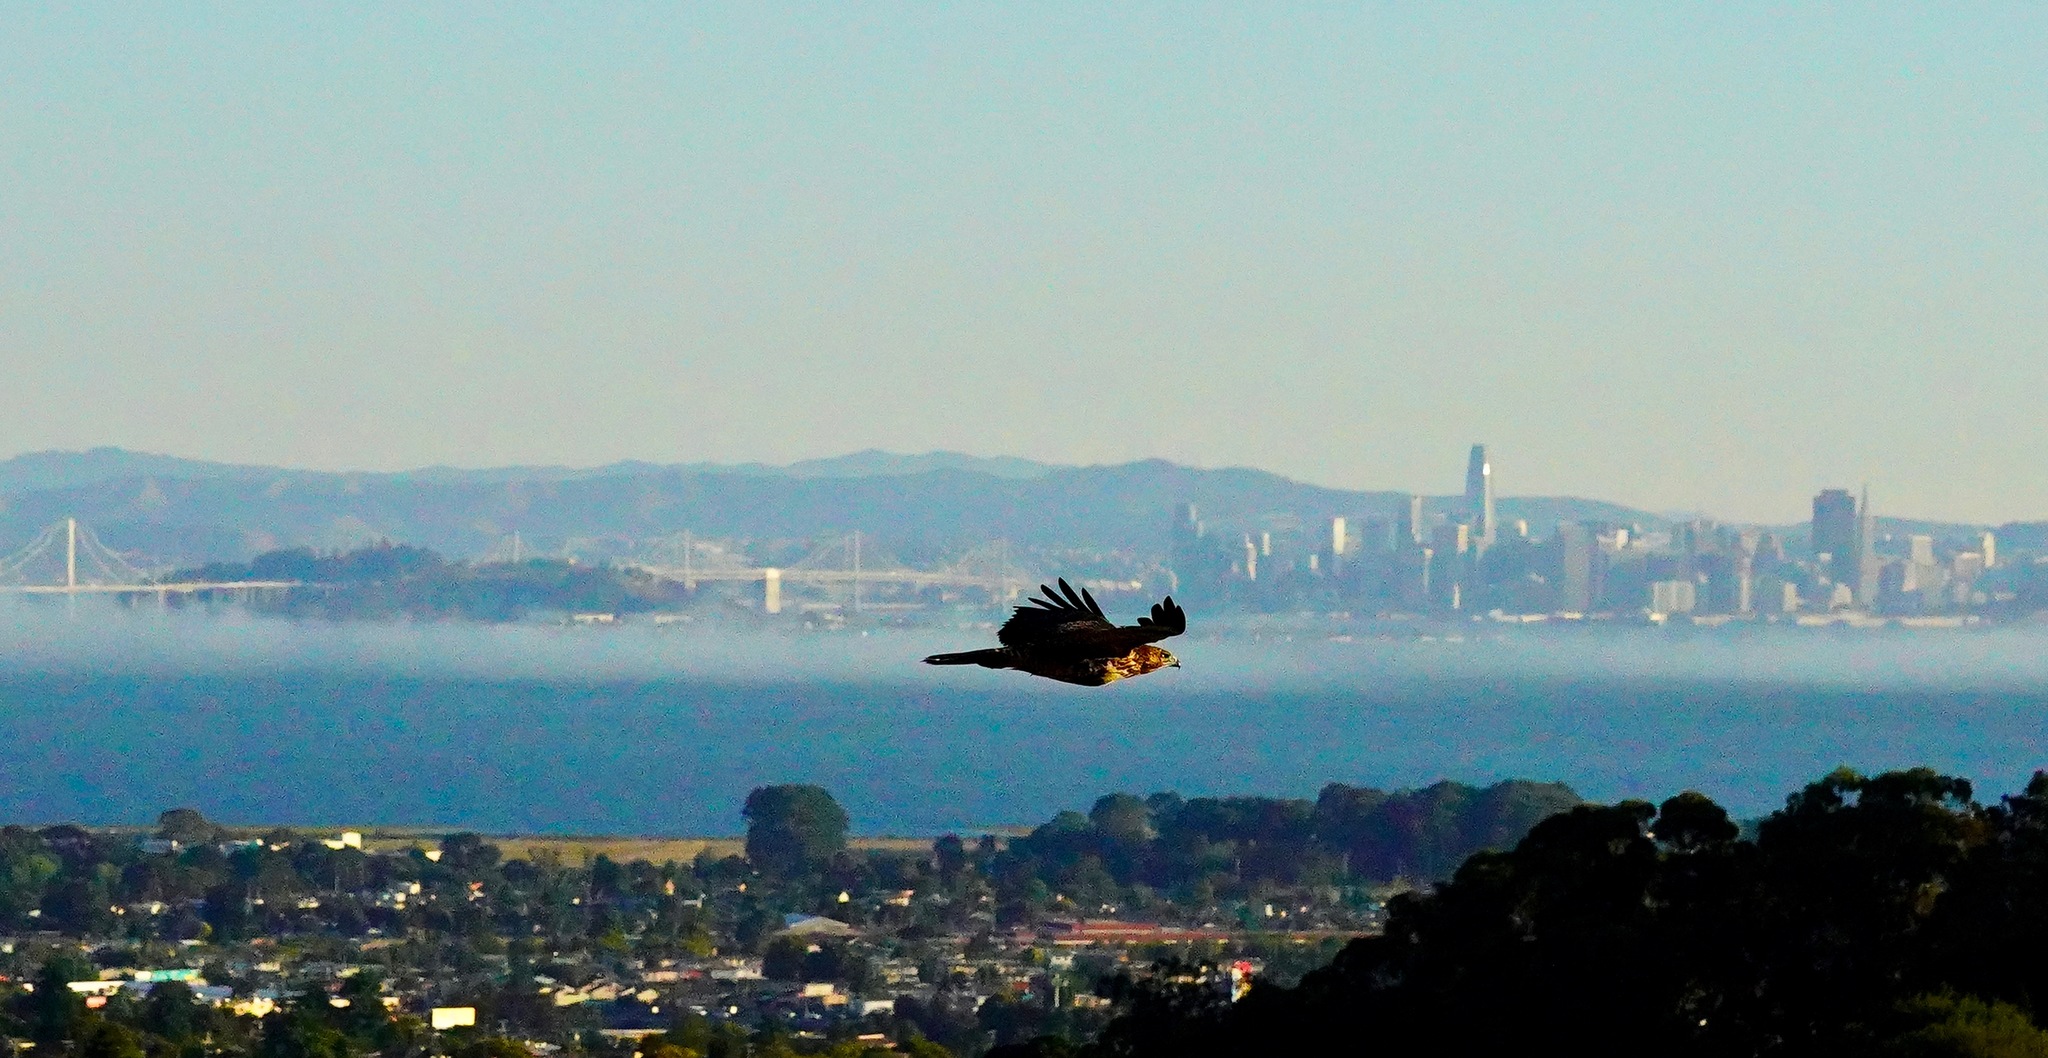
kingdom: Animalia
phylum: Chordata
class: Aves
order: Accipitriformes
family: Accipitridae
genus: Buteo
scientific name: Buteo jamaicensis
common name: Red-tailed hawk
